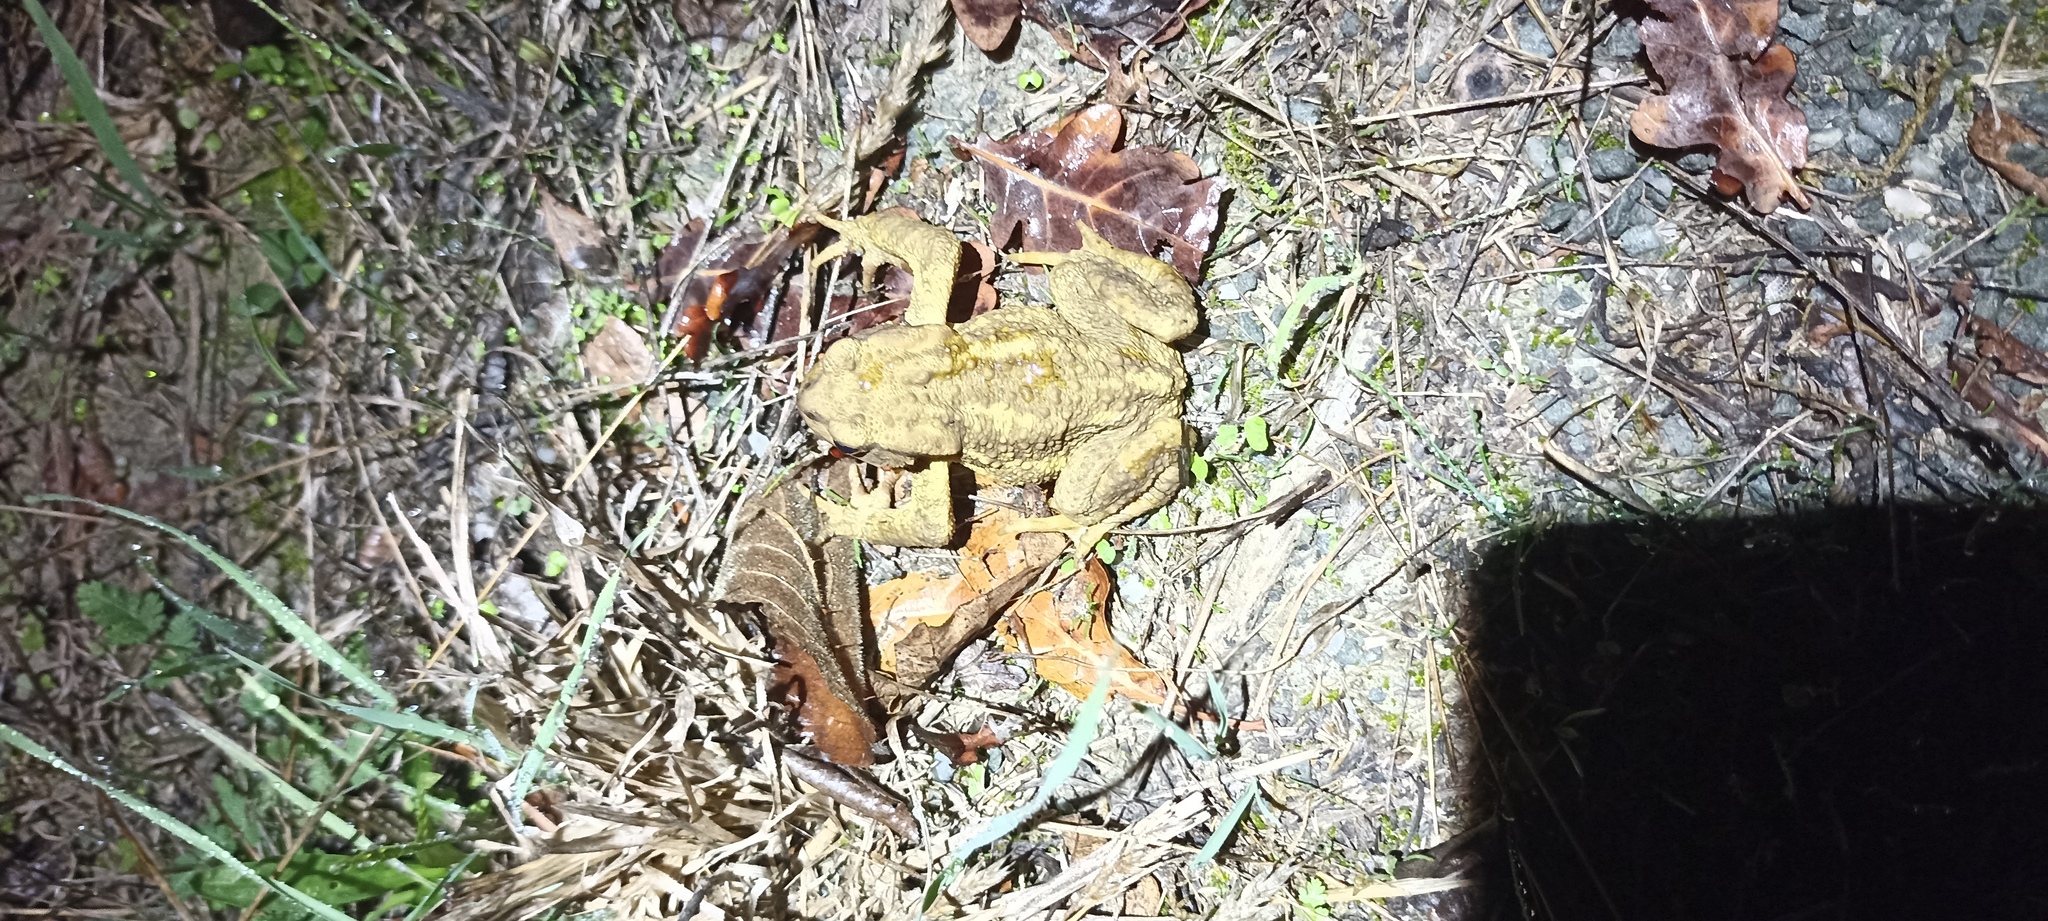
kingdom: Animalia
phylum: Chordata
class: Amphibia
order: Anura
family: Bufonidae
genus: Bufo
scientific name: Bufo spinosus
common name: Western common toad
